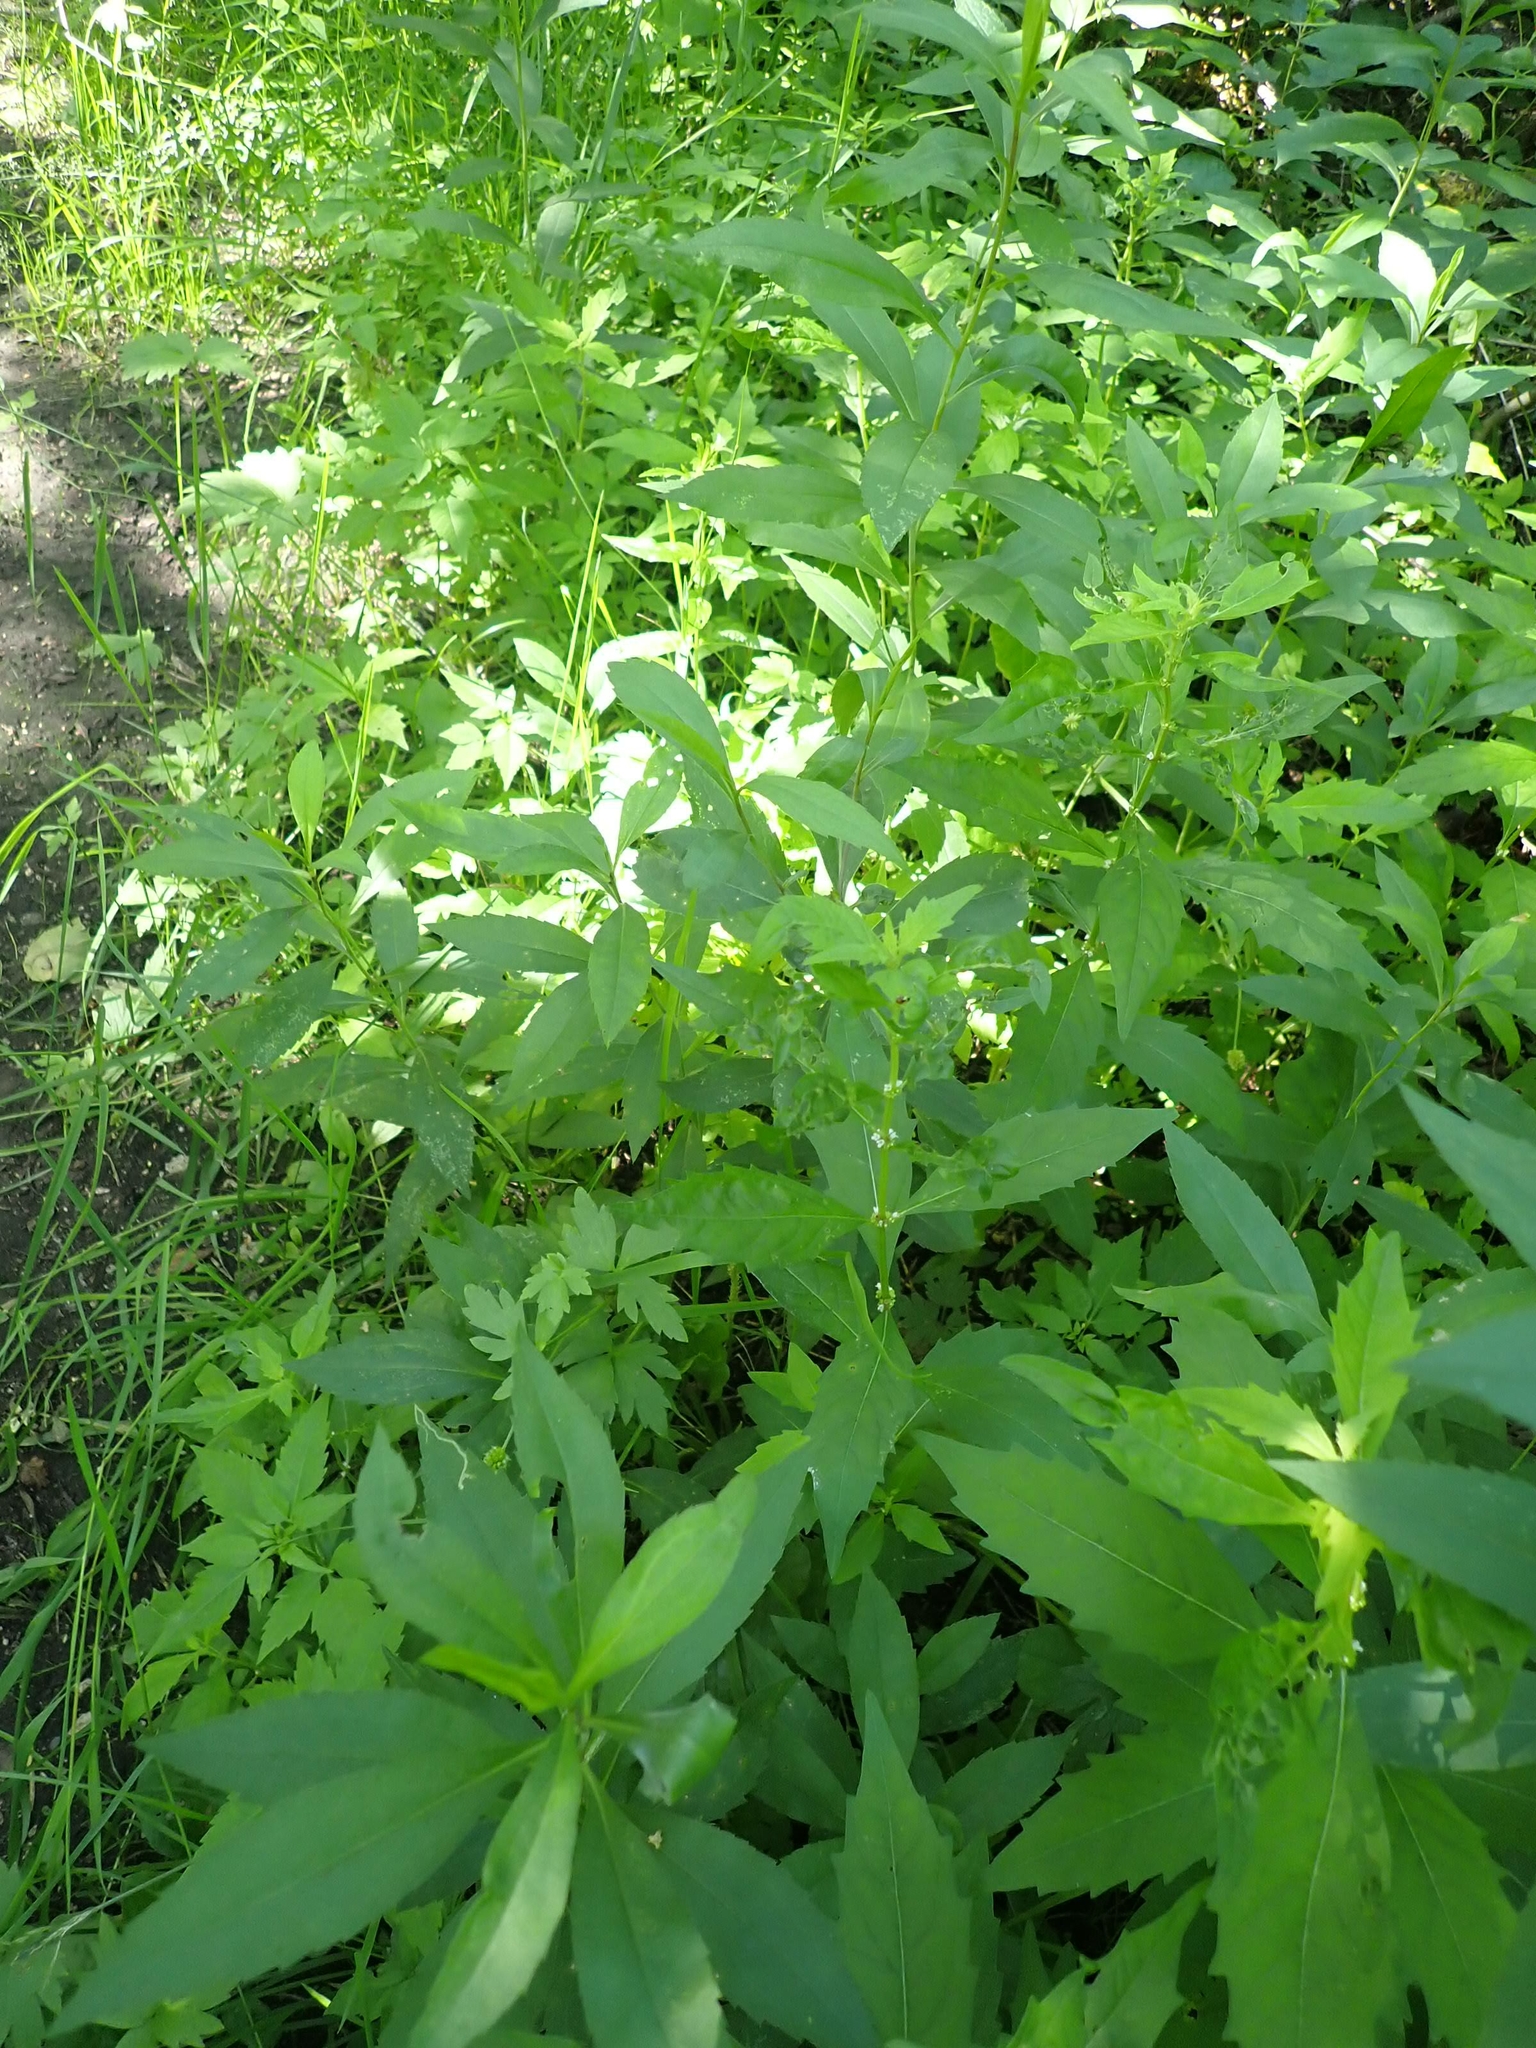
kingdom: Plantae
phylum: Tracheophyta
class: Magnoliopsida
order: Lamiales
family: Lamiaceae
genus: Lycopus
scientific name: Lycopus uniflorus
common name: Northern bugleweed
